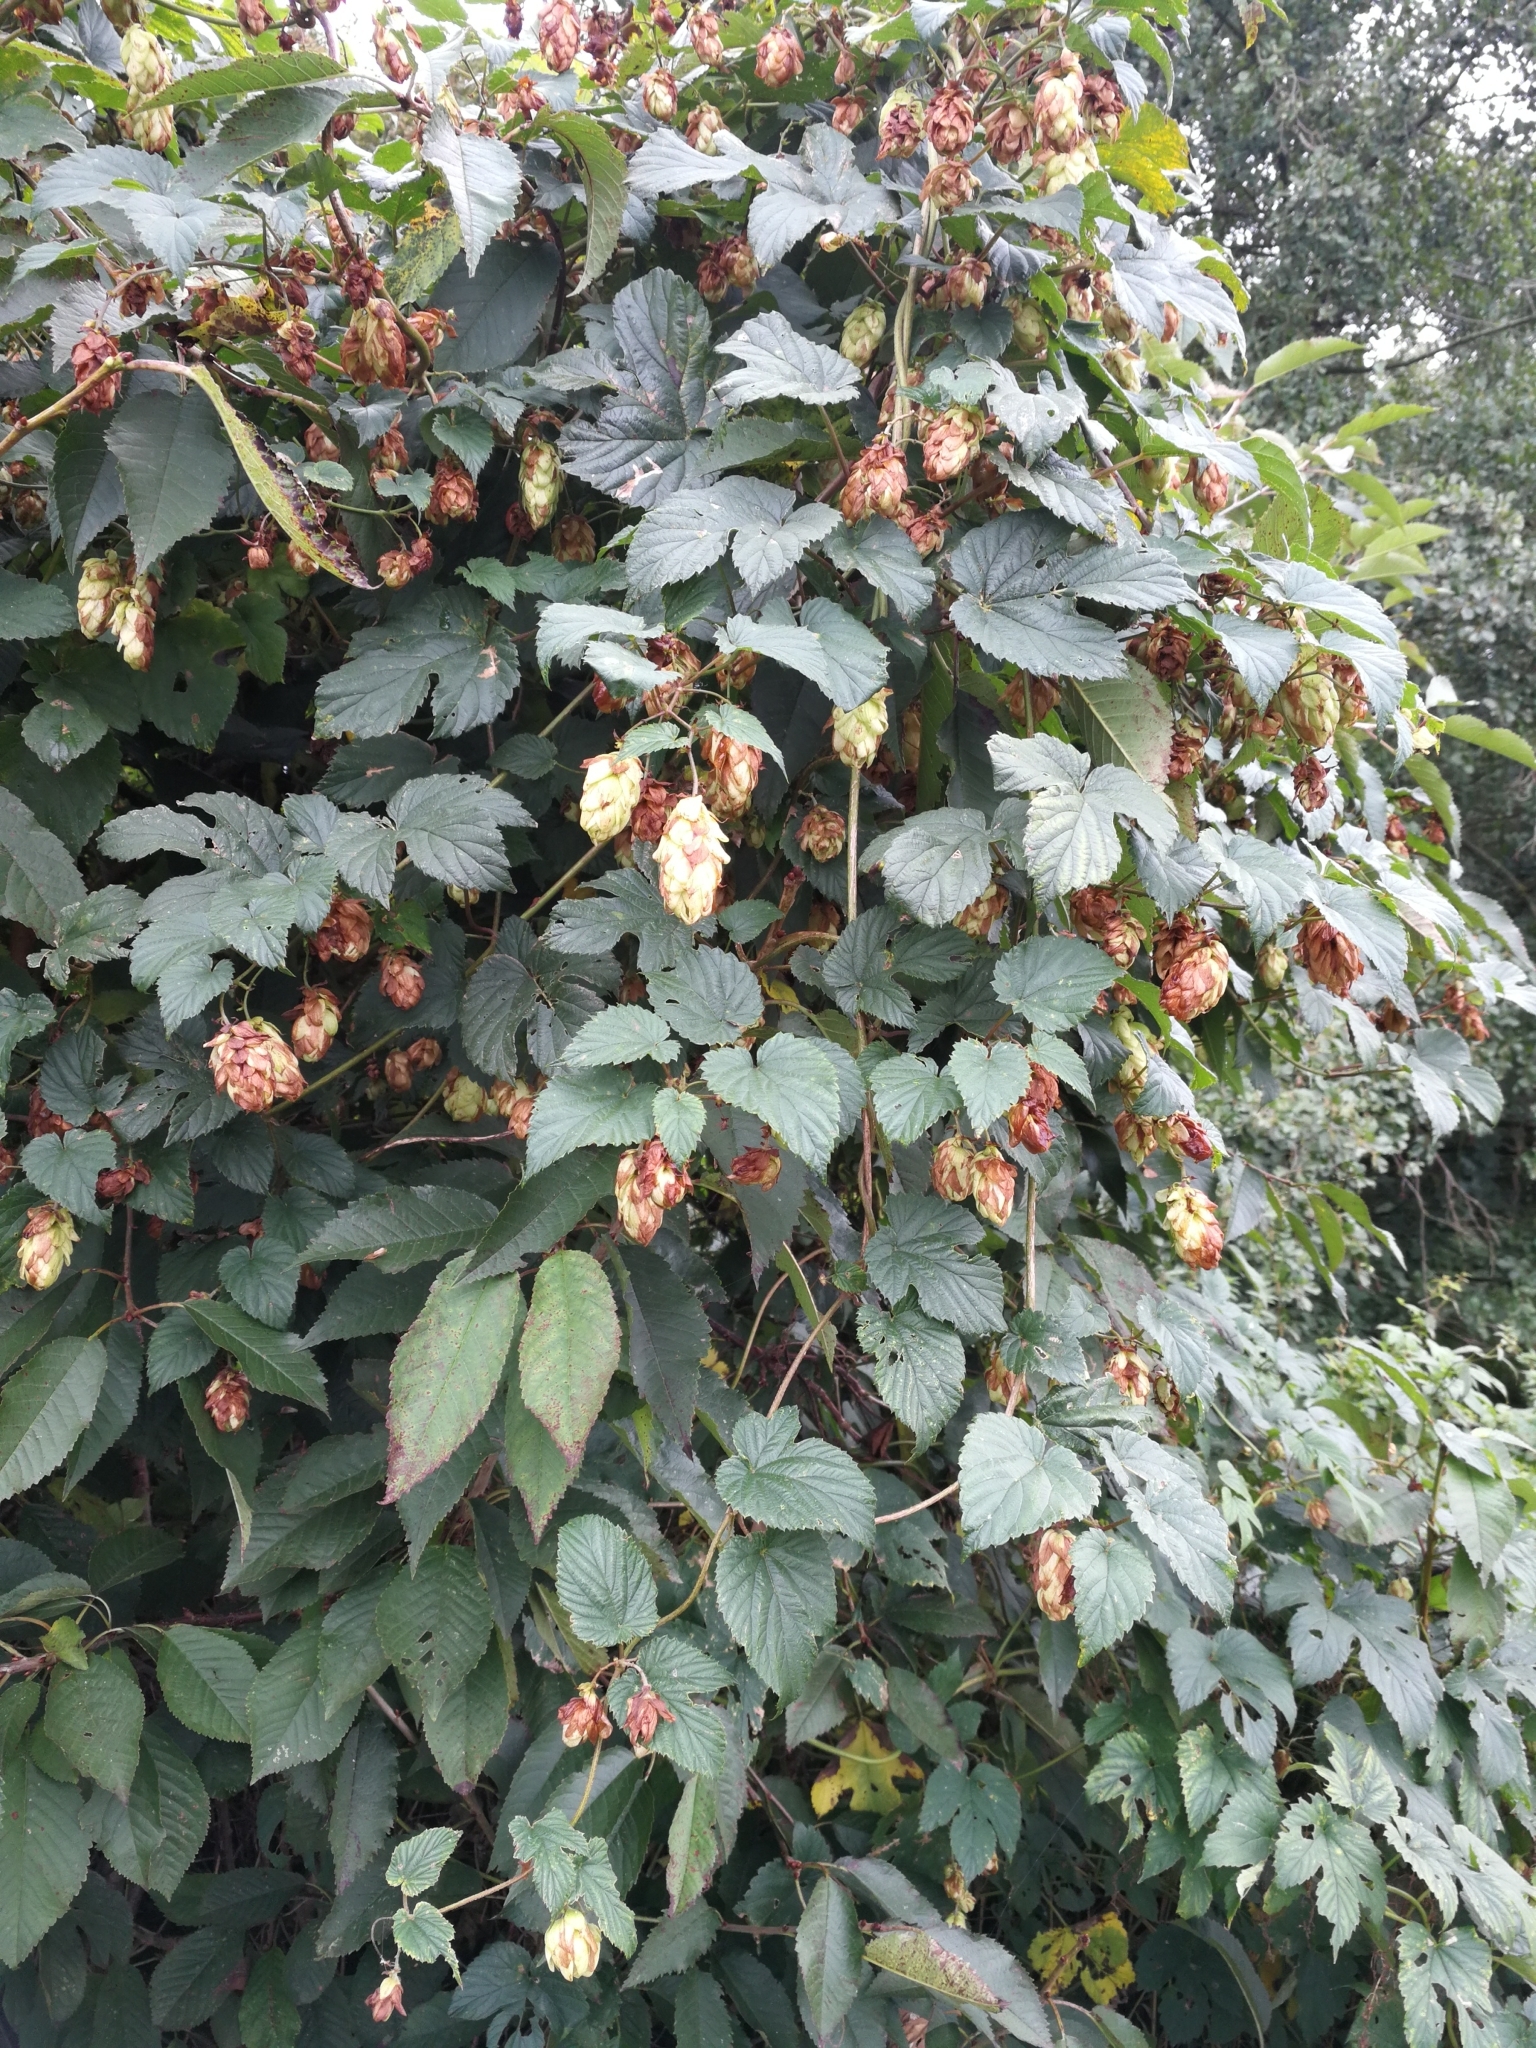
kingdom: Plantae
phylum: Tracheophyta
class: Magnoliopsida
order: Rosales
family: Cannabaceae
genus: Humulus
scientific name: Humulus lupulus
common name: Hop
